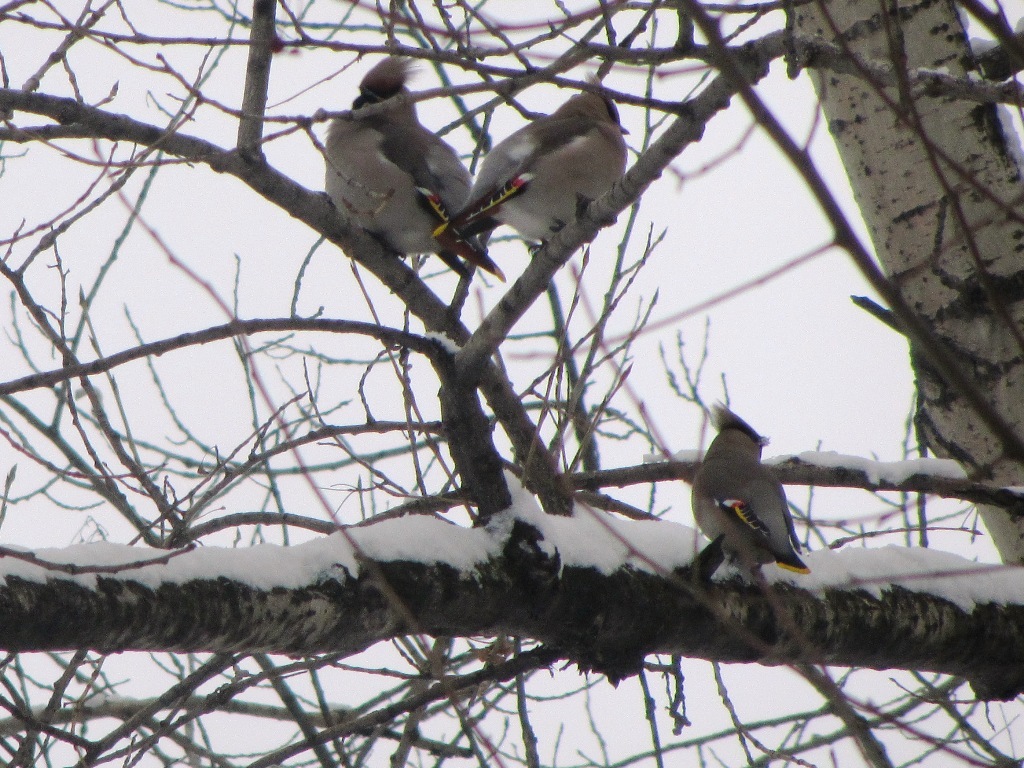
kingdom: Animalia
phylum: Chordata
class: Aves
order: Passeriformes
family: Bombycillidae
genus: Bombycilla
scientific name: Bombycilla garrulus
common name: Bohemian waxwing
